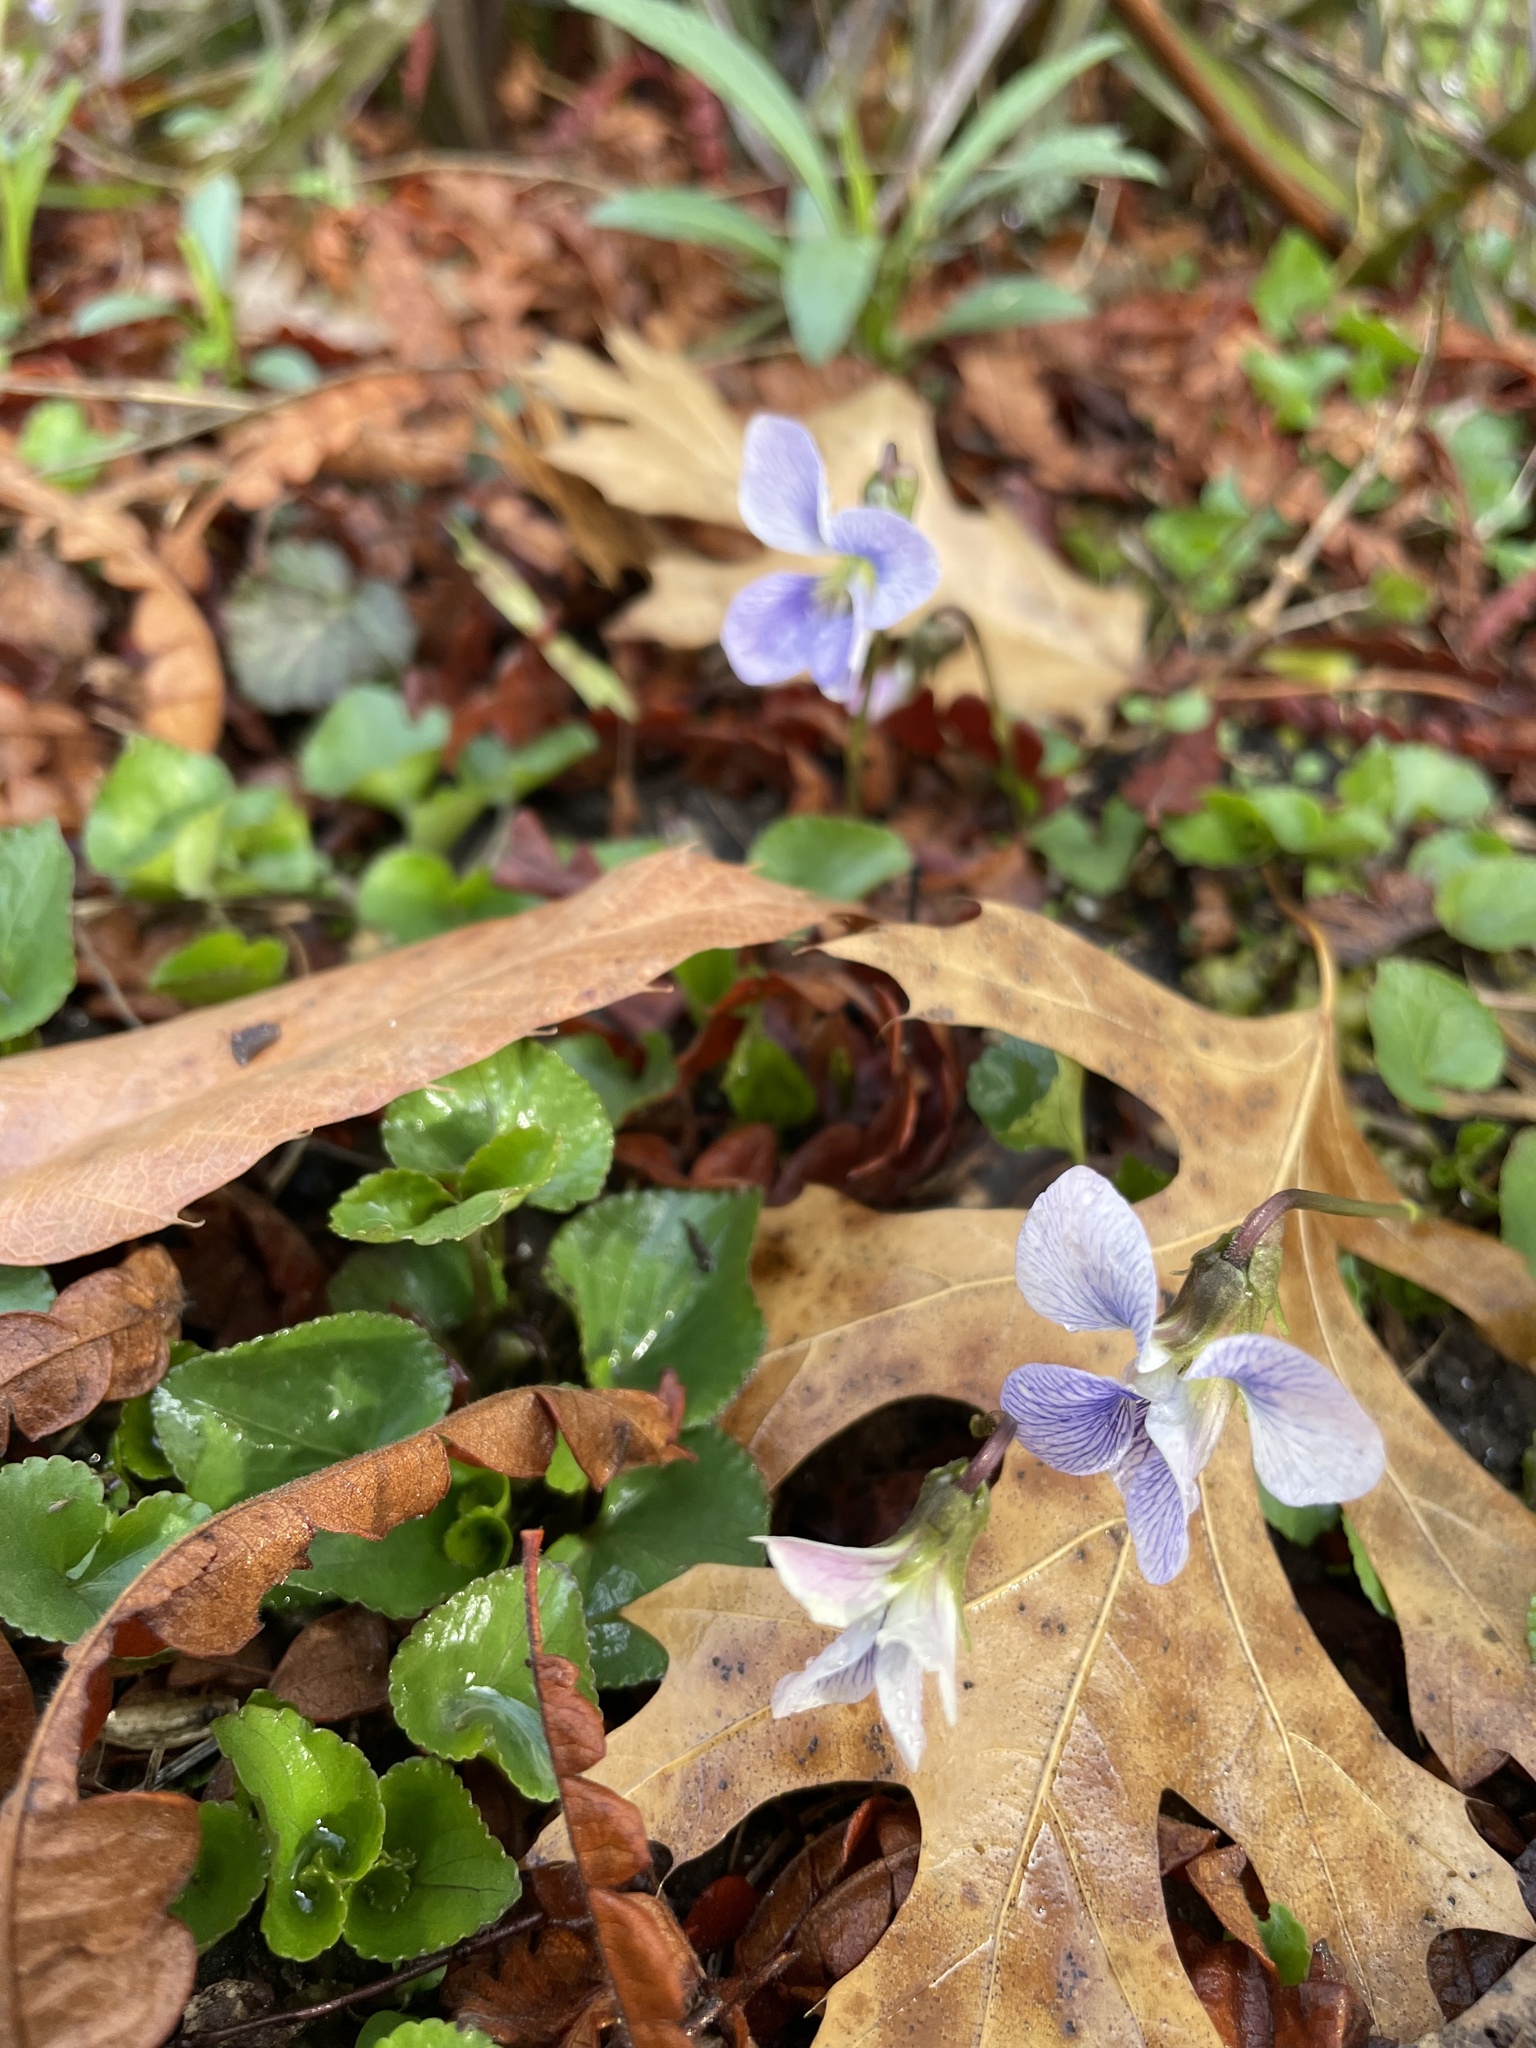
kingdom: Plantae
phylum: Tracheophyta
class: Magnoliopsida
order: Malpighiales
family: Violaceae
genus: Viola
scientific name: Viola sororia
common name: Dooryard violet
